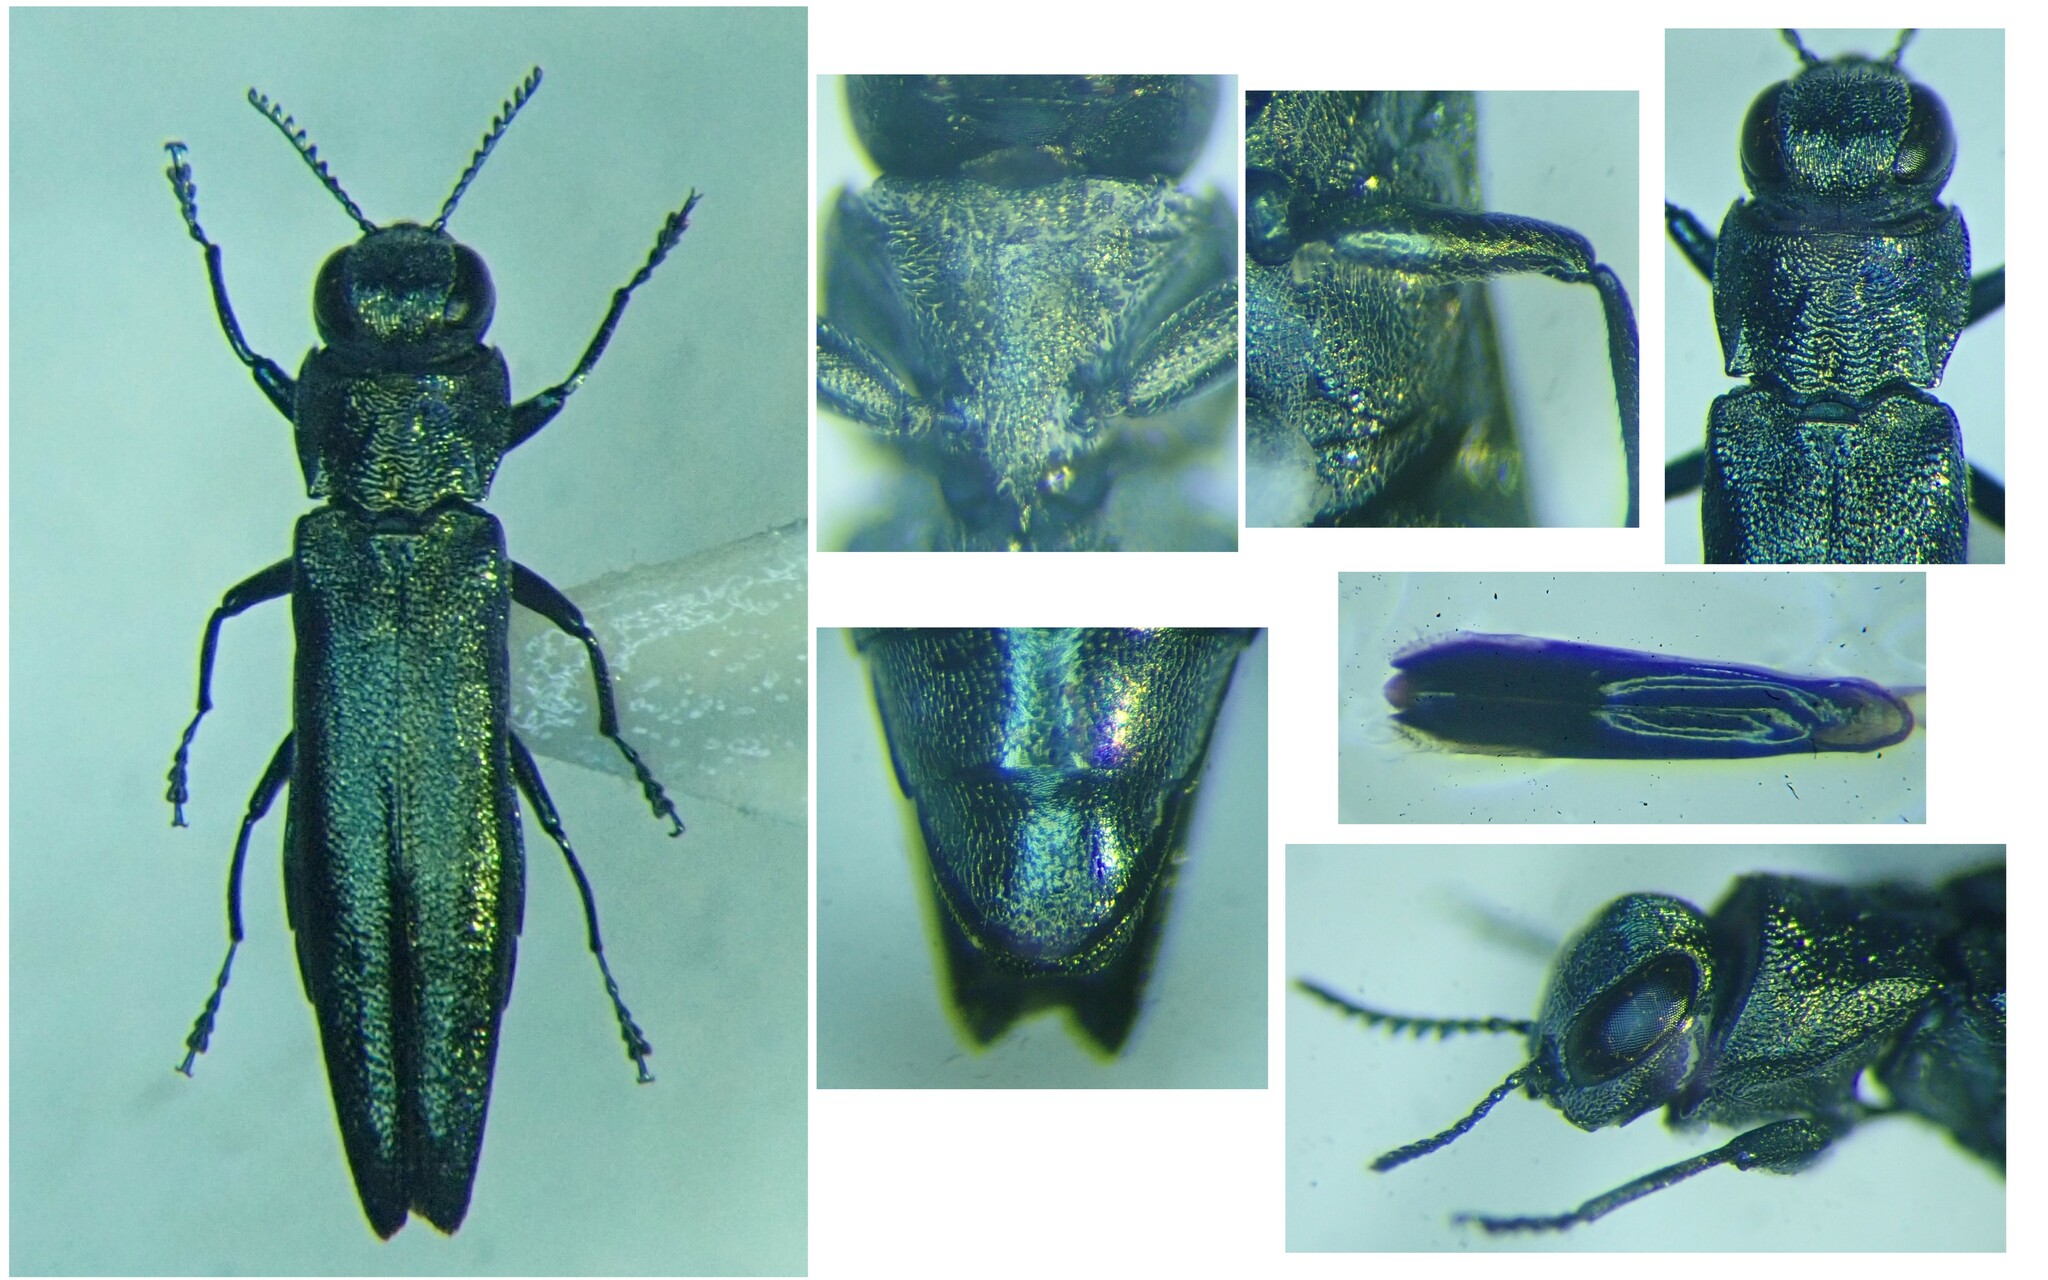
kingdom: Animalia
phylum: Arthropoda
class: Insecta
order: Coleoptera
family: Buprestidae
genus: Agrilus
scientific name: Agrilus suvorovi
